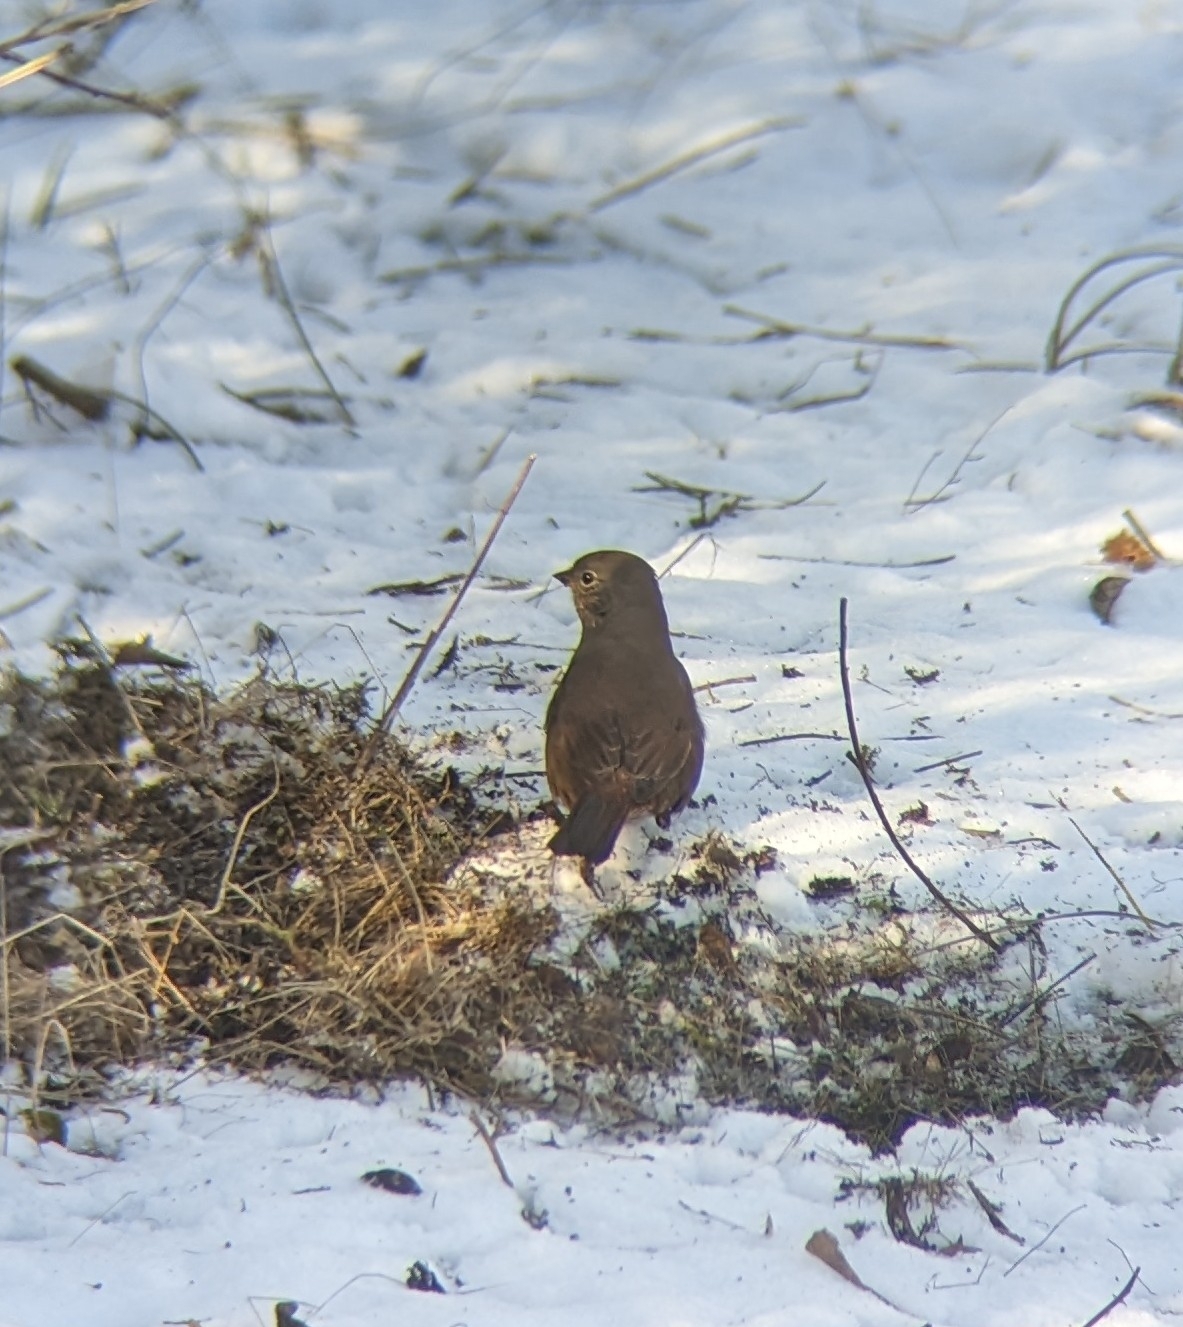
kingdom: Animalia
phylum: Chordata
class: Aves
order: Passeriformes
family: Passerellidae
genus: Passerella
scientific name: Passerella iliaca
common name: Fox sparrow
